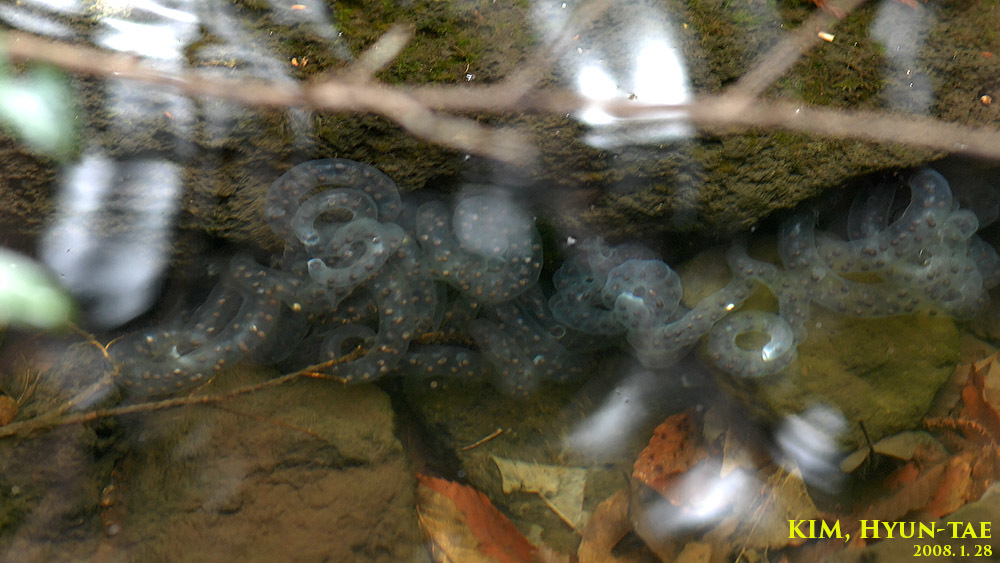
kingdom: Animalia
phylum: Chordata
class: Amphibia
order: Caudata
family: Hynobiidae
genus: Hynobius
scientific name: Hynobius quelpaertensis
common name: Cheju salamander
